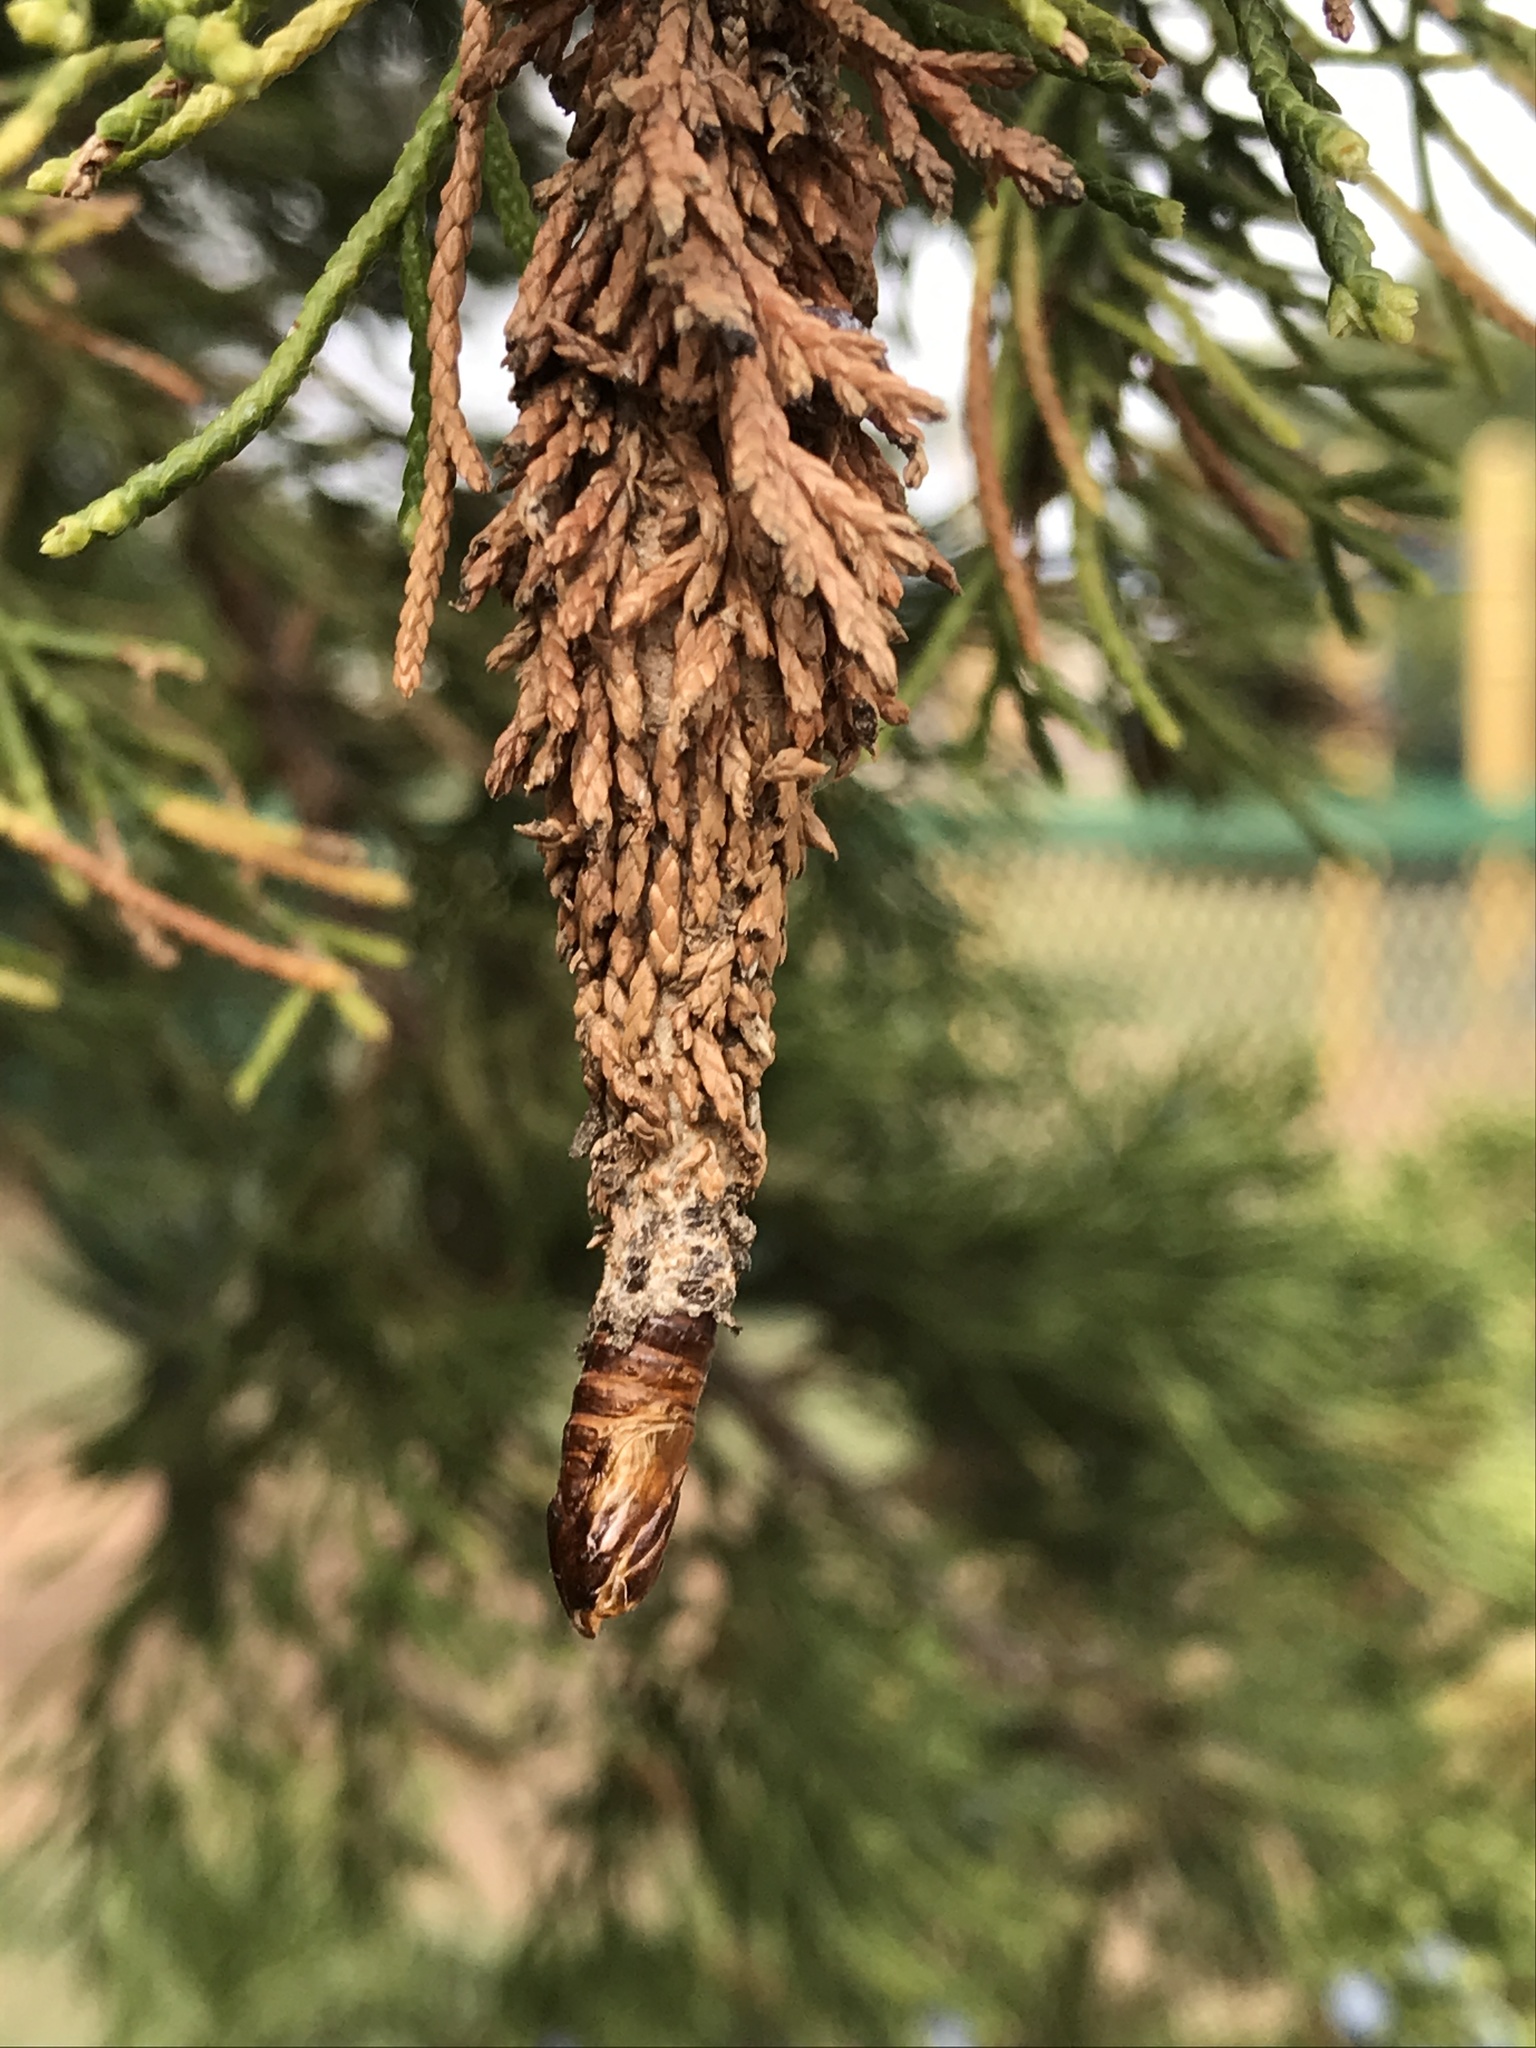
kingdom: Animalia
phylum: Arthropoda
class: Insecta
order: Lepidoptera
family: Psychidae
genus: Thyridopteryx
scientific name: Thyridopteryx ephemeraeformis
